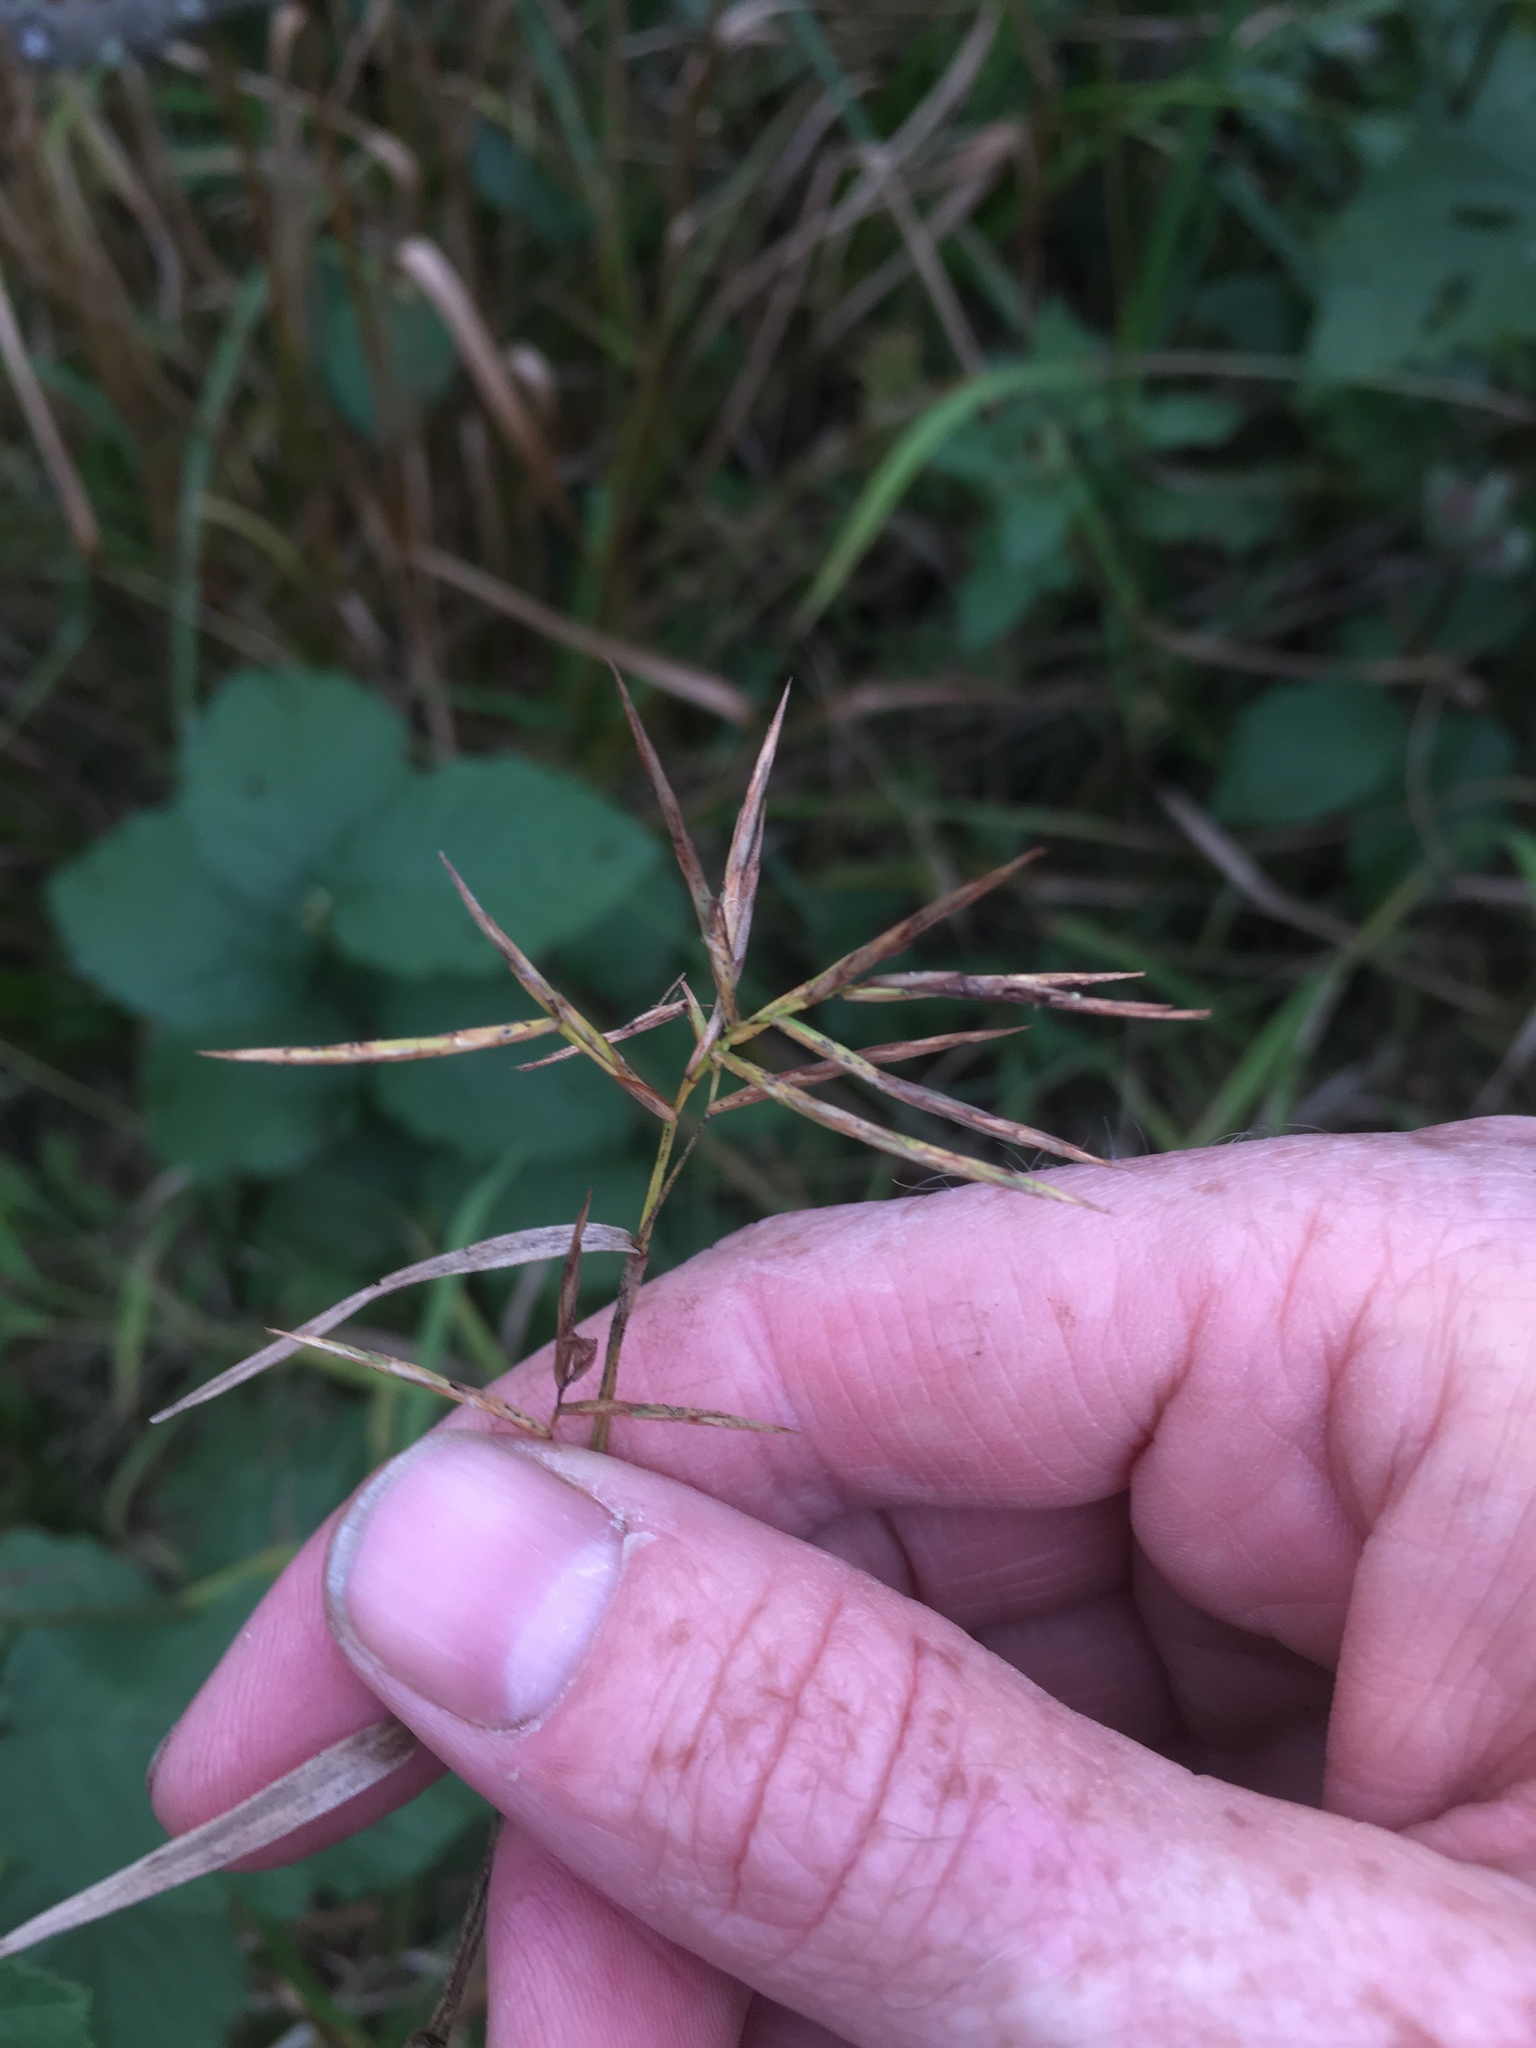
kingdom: Plantae
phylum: Tracheophyta
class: Liliopsida
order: Poales
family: Cyperaceae
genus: Dulichium
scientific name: Dulichium arundinaceum
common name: Three-way sedge
